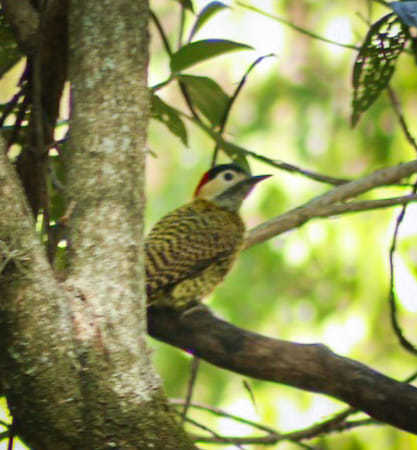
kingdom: Animalia
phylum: Chordata
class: Aves
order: Piciformes
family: Picidae
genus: Colaptes
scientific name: Colaptes melanochloros
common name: Green-barred woodpecker
